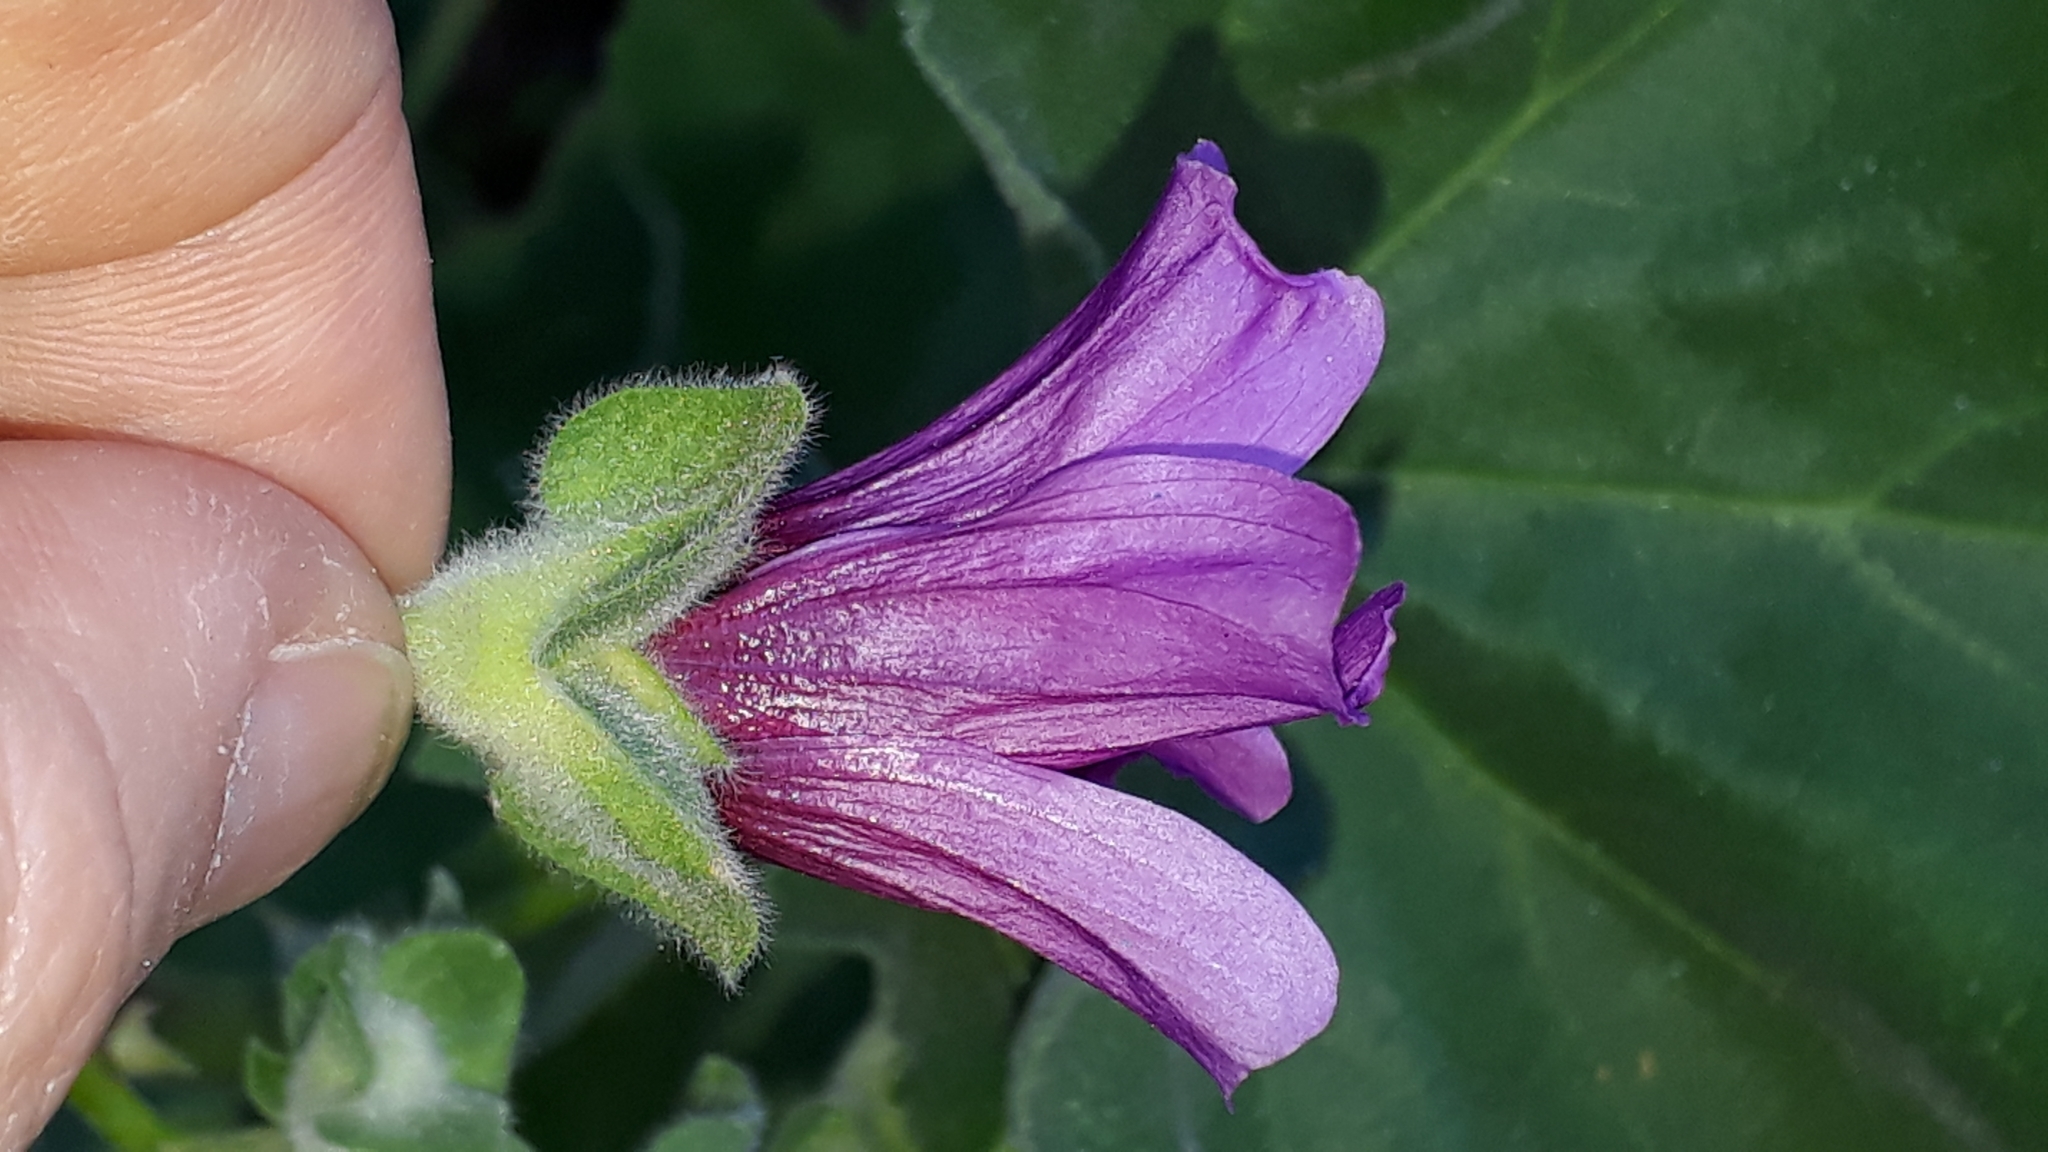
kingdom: Plantae
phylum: Tracheophyta
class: Magnoliopsida
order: Malvales
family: Malvaceae
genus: Malva
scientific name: Malva arborea
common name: Tree mallow
